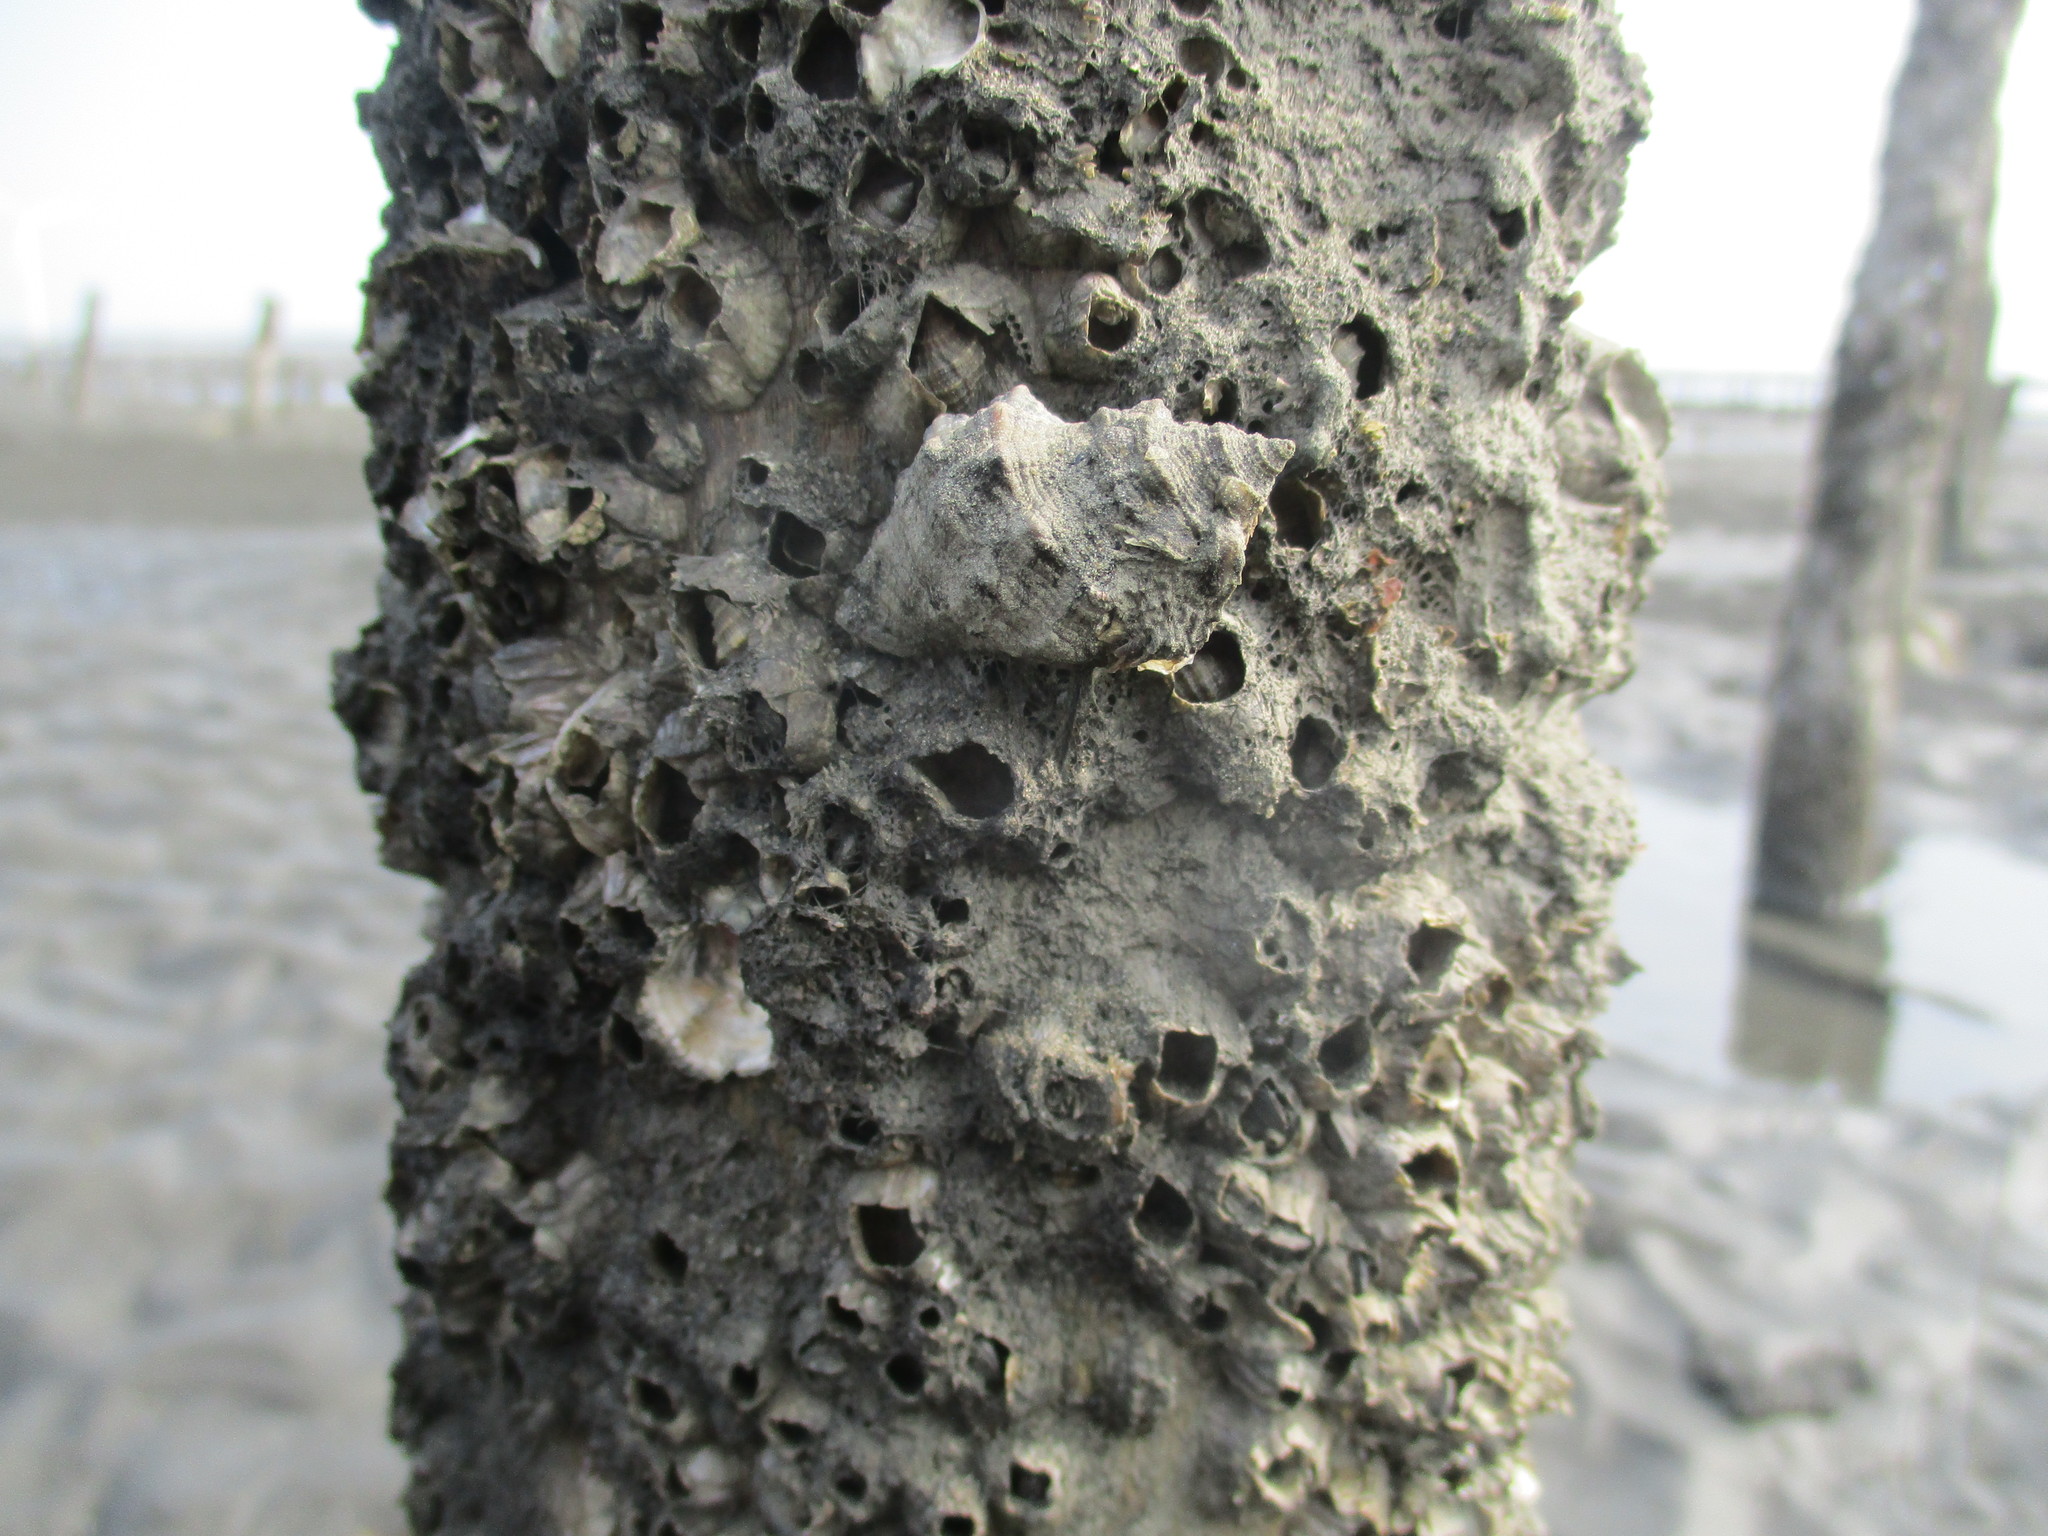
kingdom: Animalia
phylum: Mollusca
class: Gastropoda
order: Neogastropoda
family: Muricidae
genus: Reishia
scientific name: Reishia clavigera
